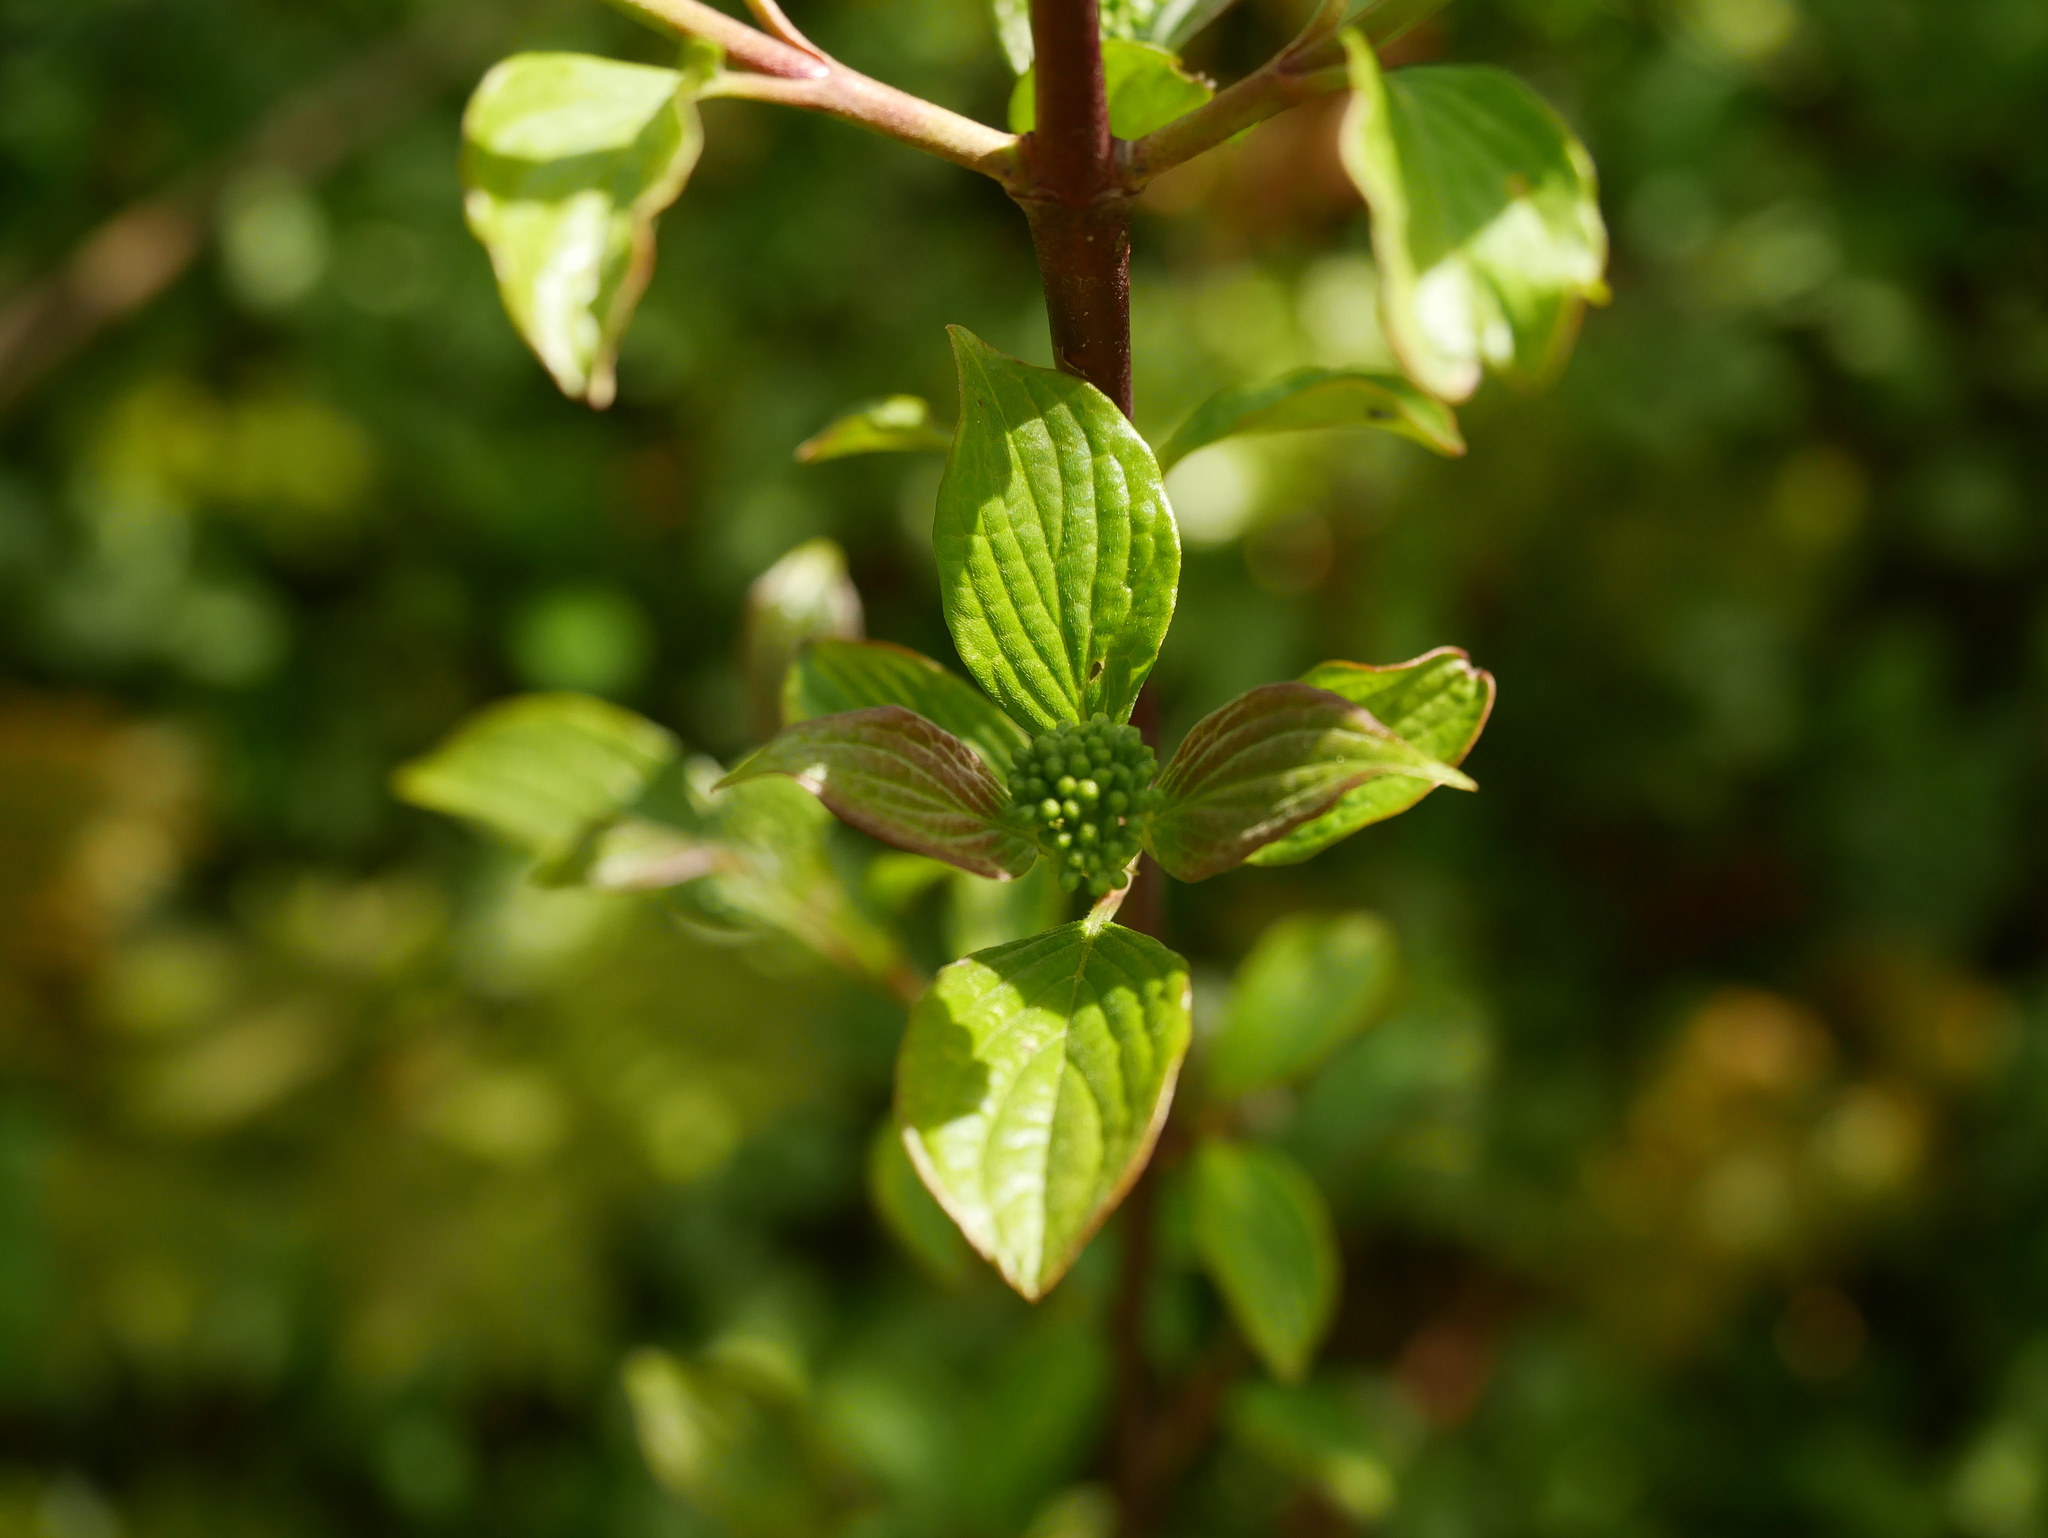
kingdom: Plantae
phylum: Tracheophyta
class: Magnoliopsida
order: Cornales
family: Cornaceae
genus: Cornus
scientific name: Cornus sanguinea
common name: Dogwood
